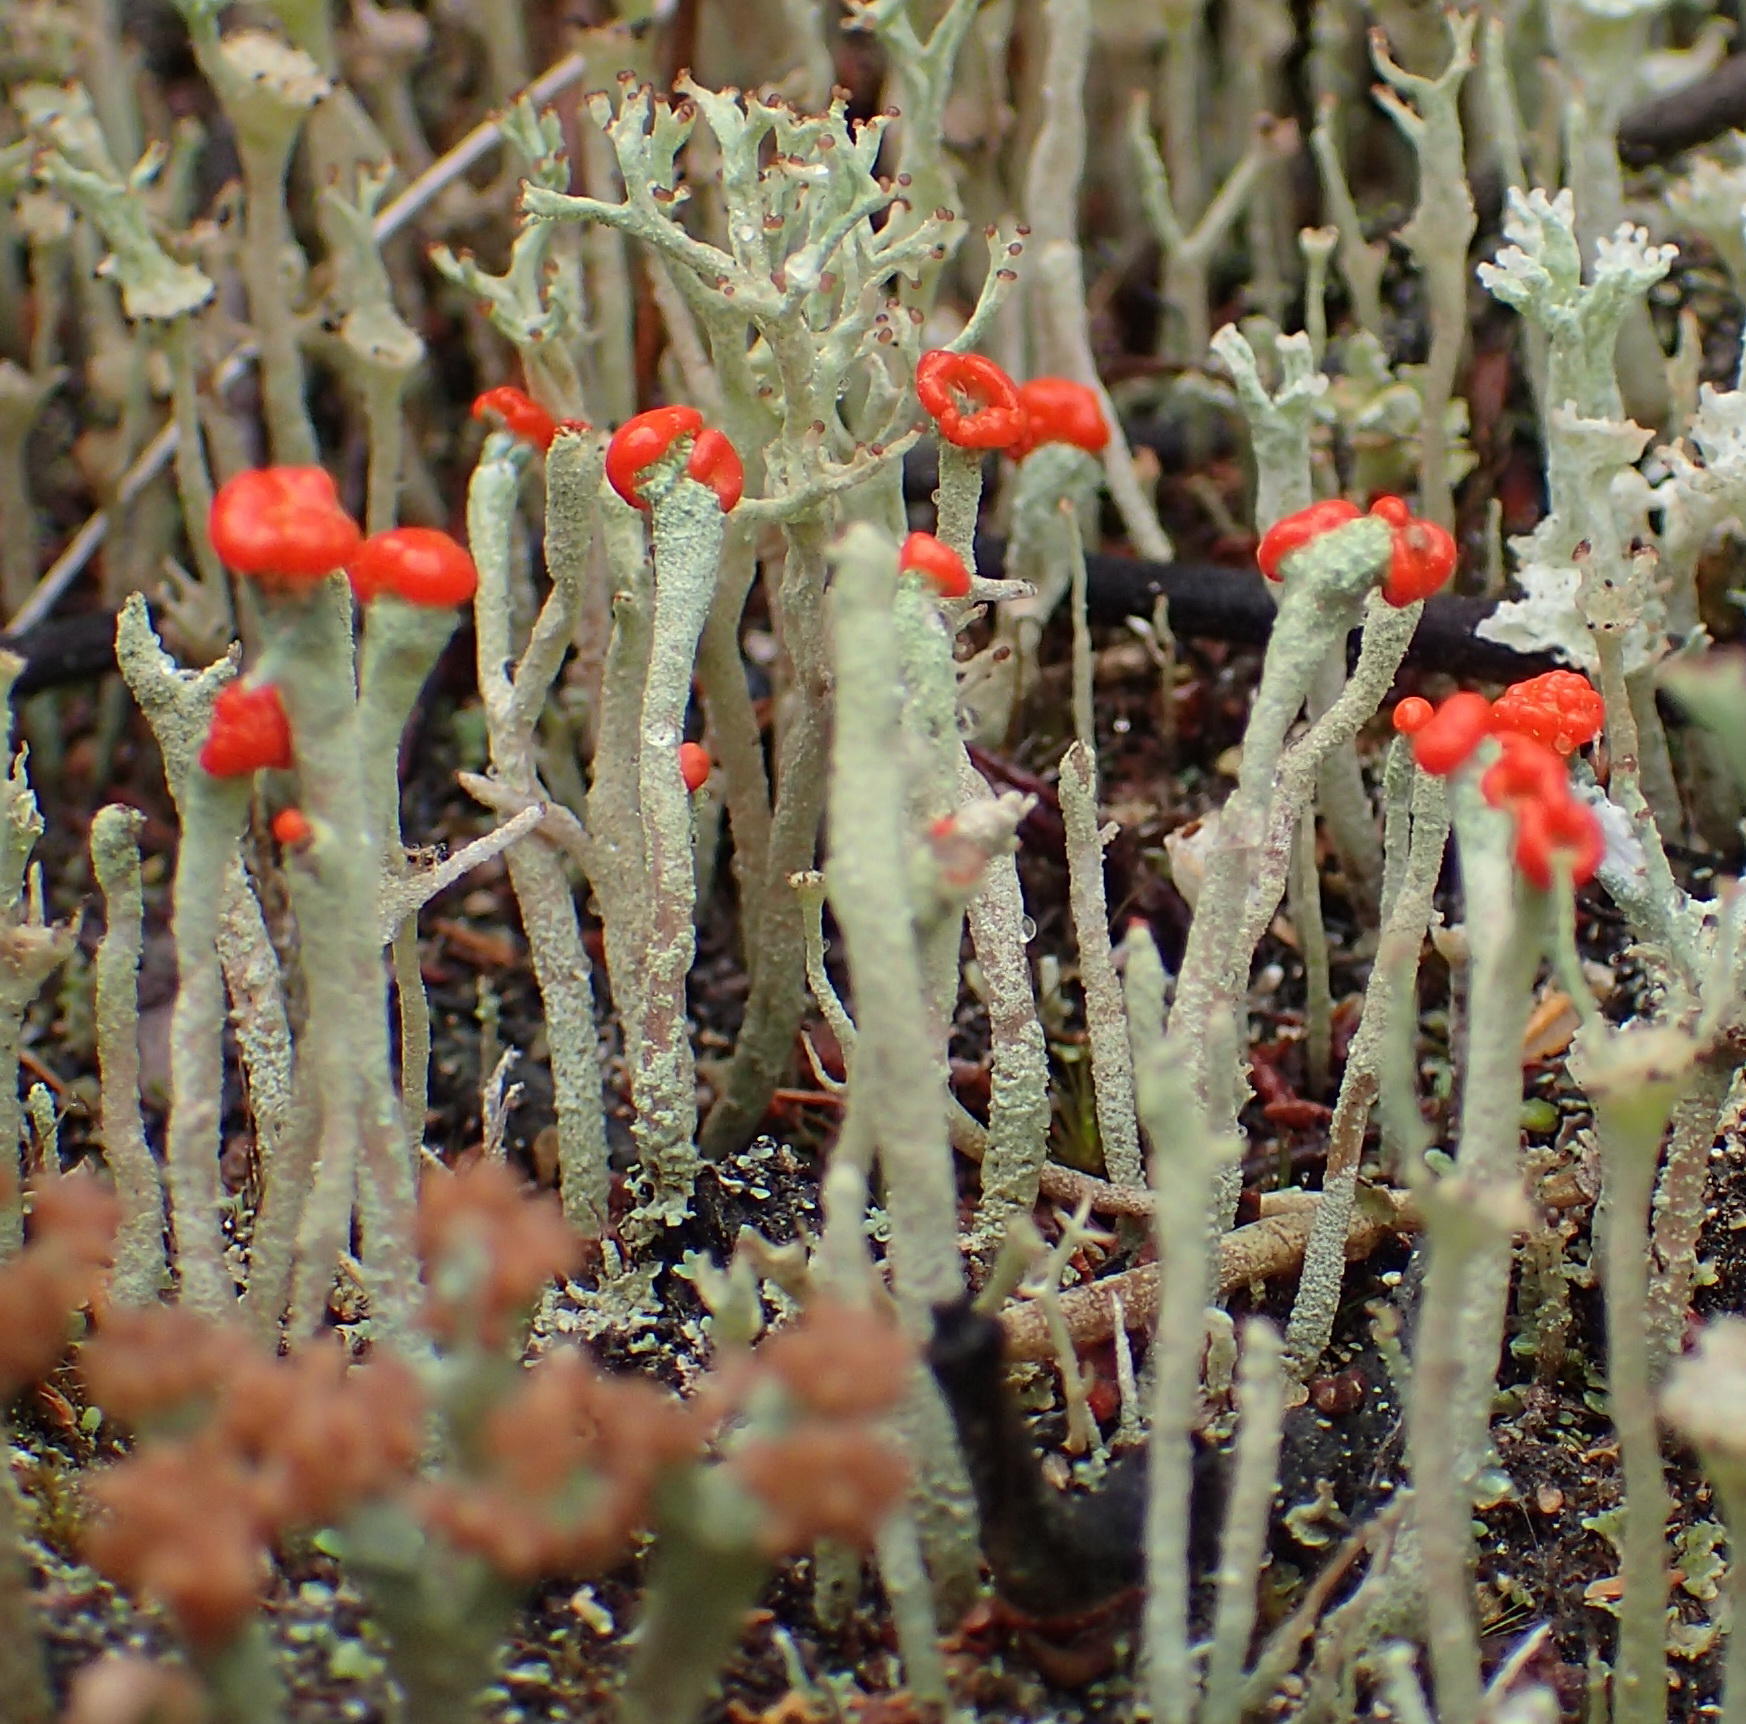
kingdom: Fungi
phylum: Ascomycota
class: Lecanoromycetes
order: Lecanorales
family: Cladoniaceae
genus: Cladonia
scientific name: Cladonia macilenta
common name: Lipstick powderhorn
